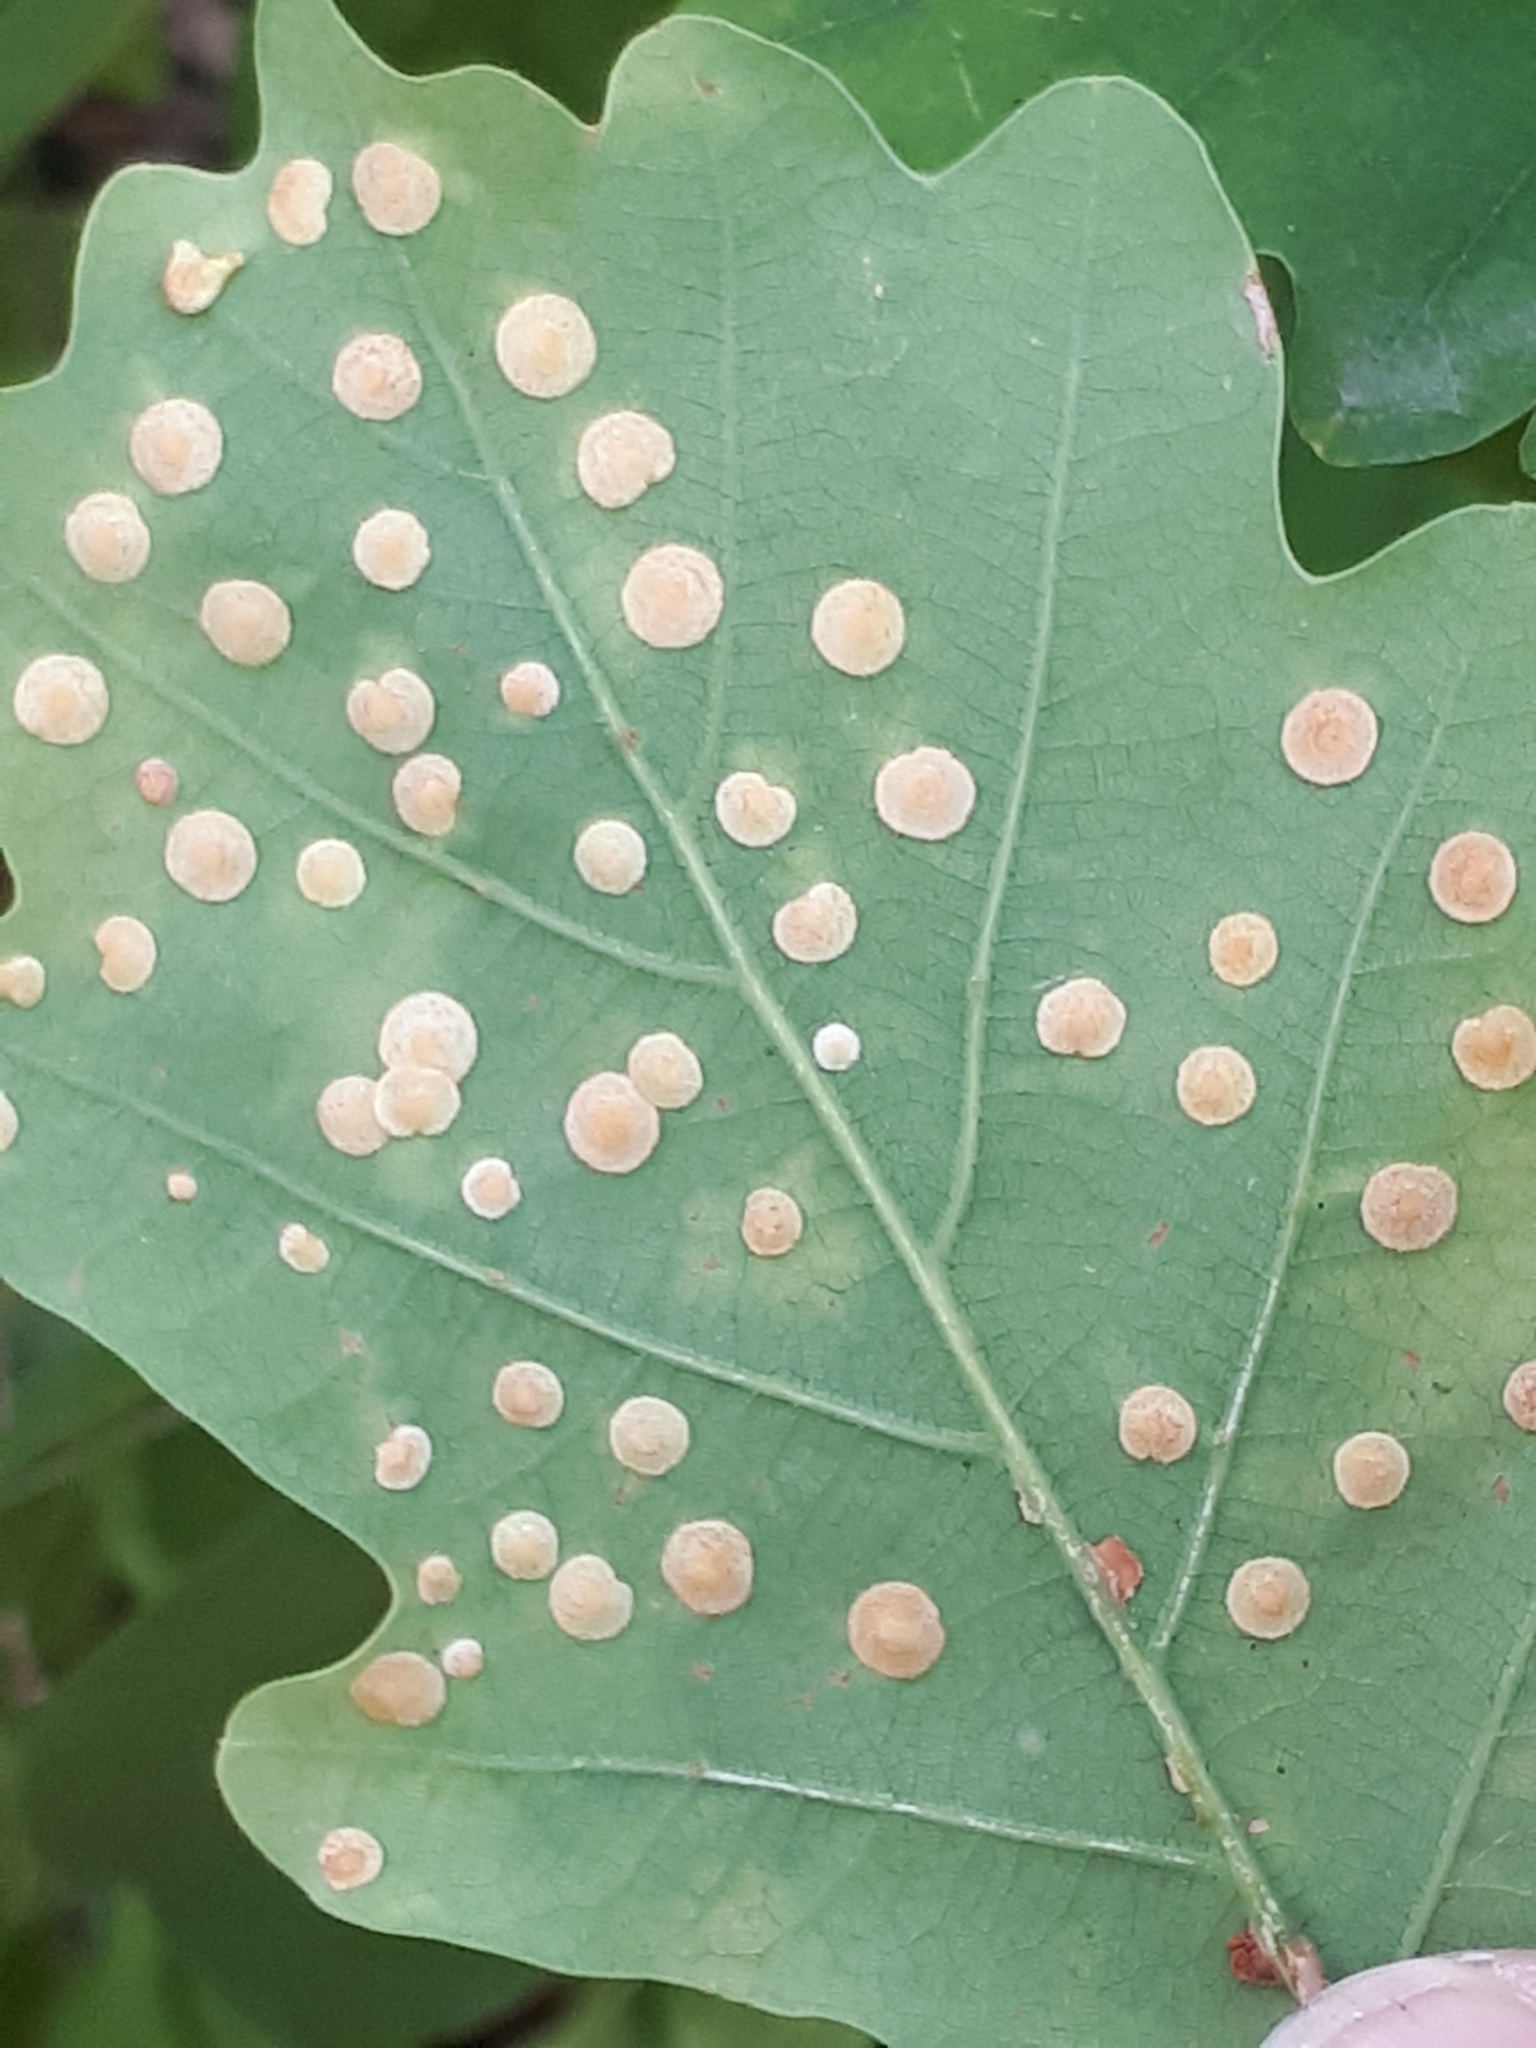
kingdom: Animalia
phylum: Arthropoda
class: Insecta
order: Hymenoptera
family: Cynipidae
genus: Neuroterus
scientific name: Neuroterus quercusbaccarum
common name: Common spangle gall
